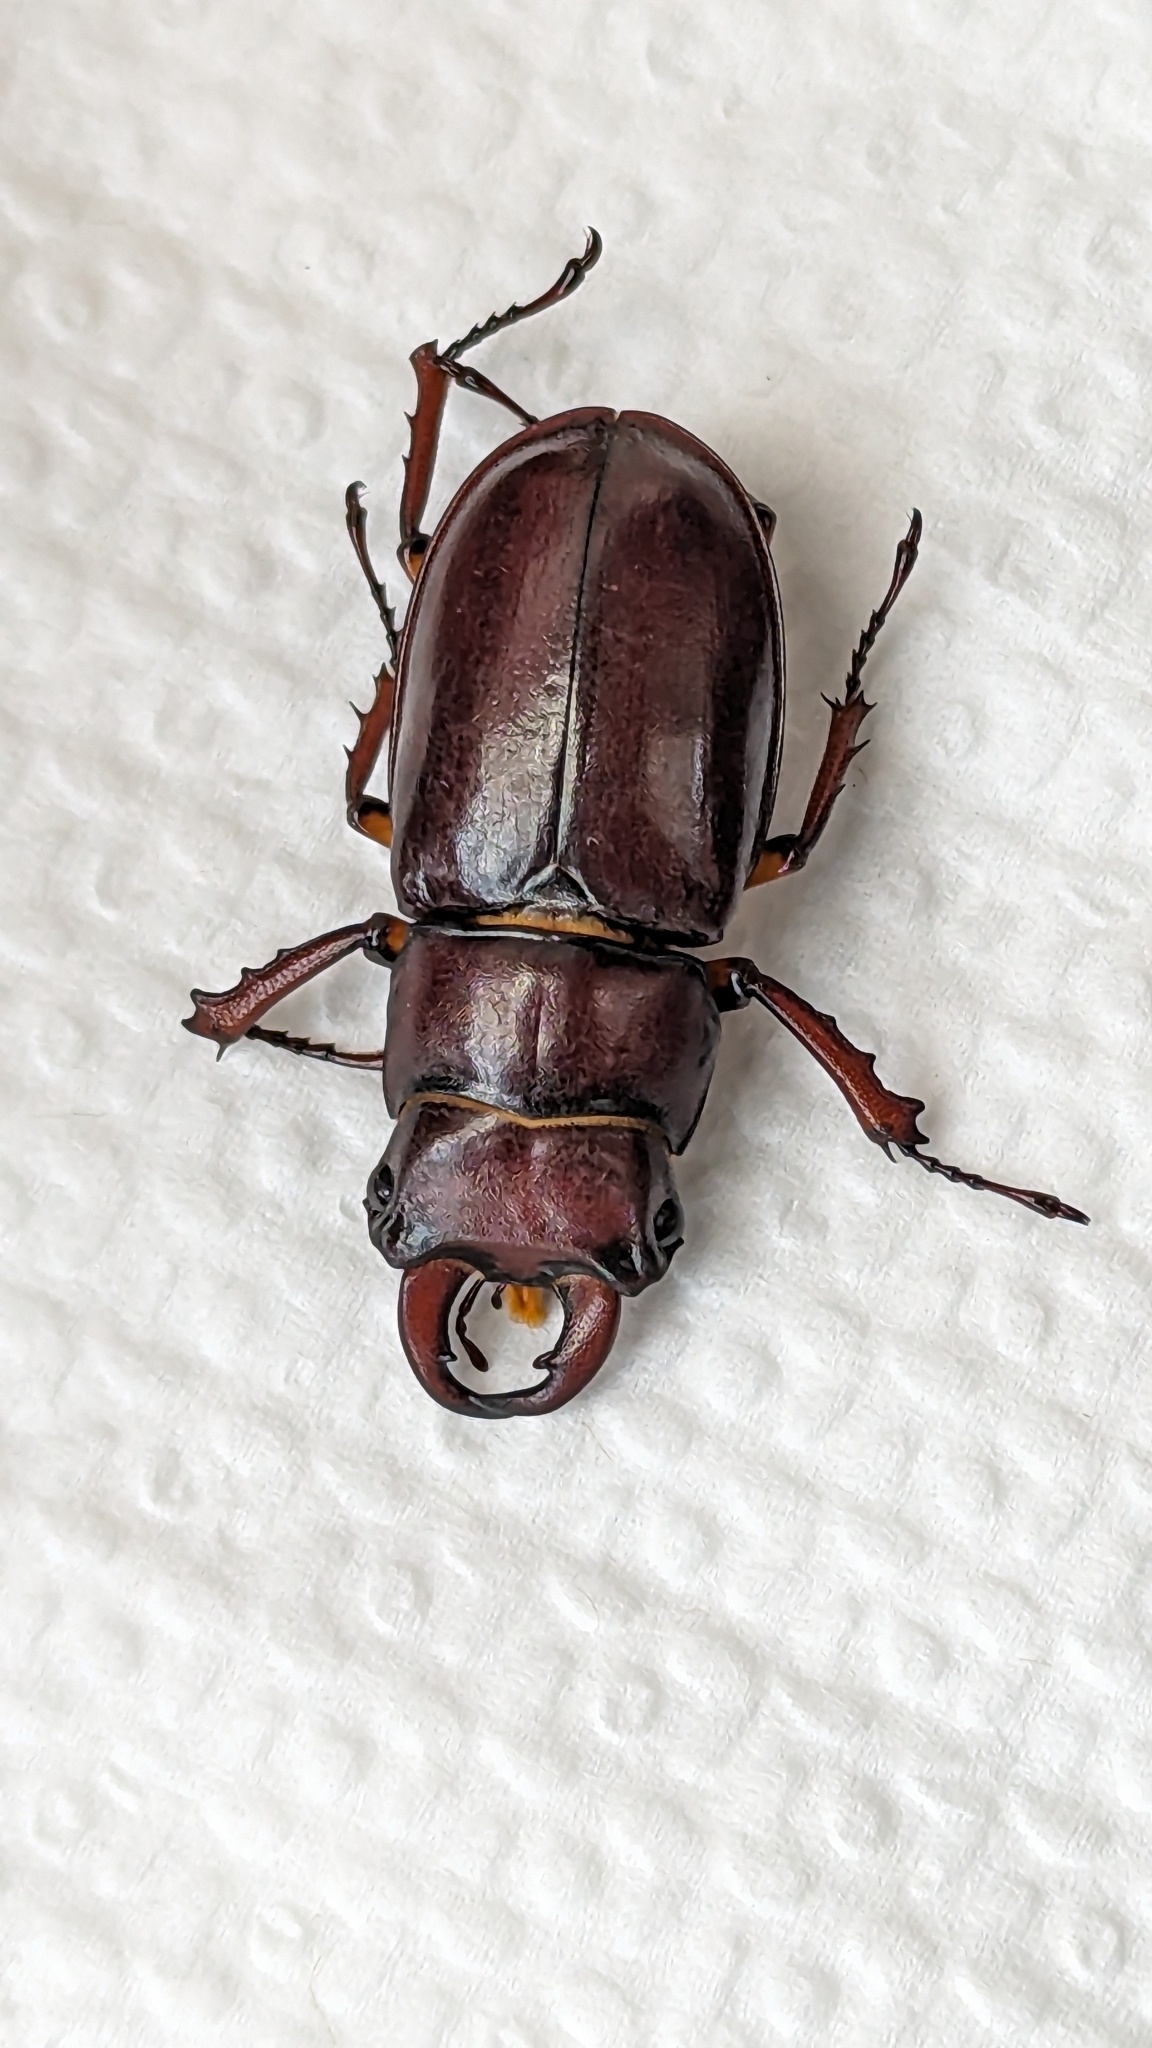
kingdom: Animalia
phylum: Arthropoda
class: Insecta
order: Coleoptera
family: Lucanidae
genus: Lucanus
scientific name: Lucanus capreolus
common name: Stag beetle
